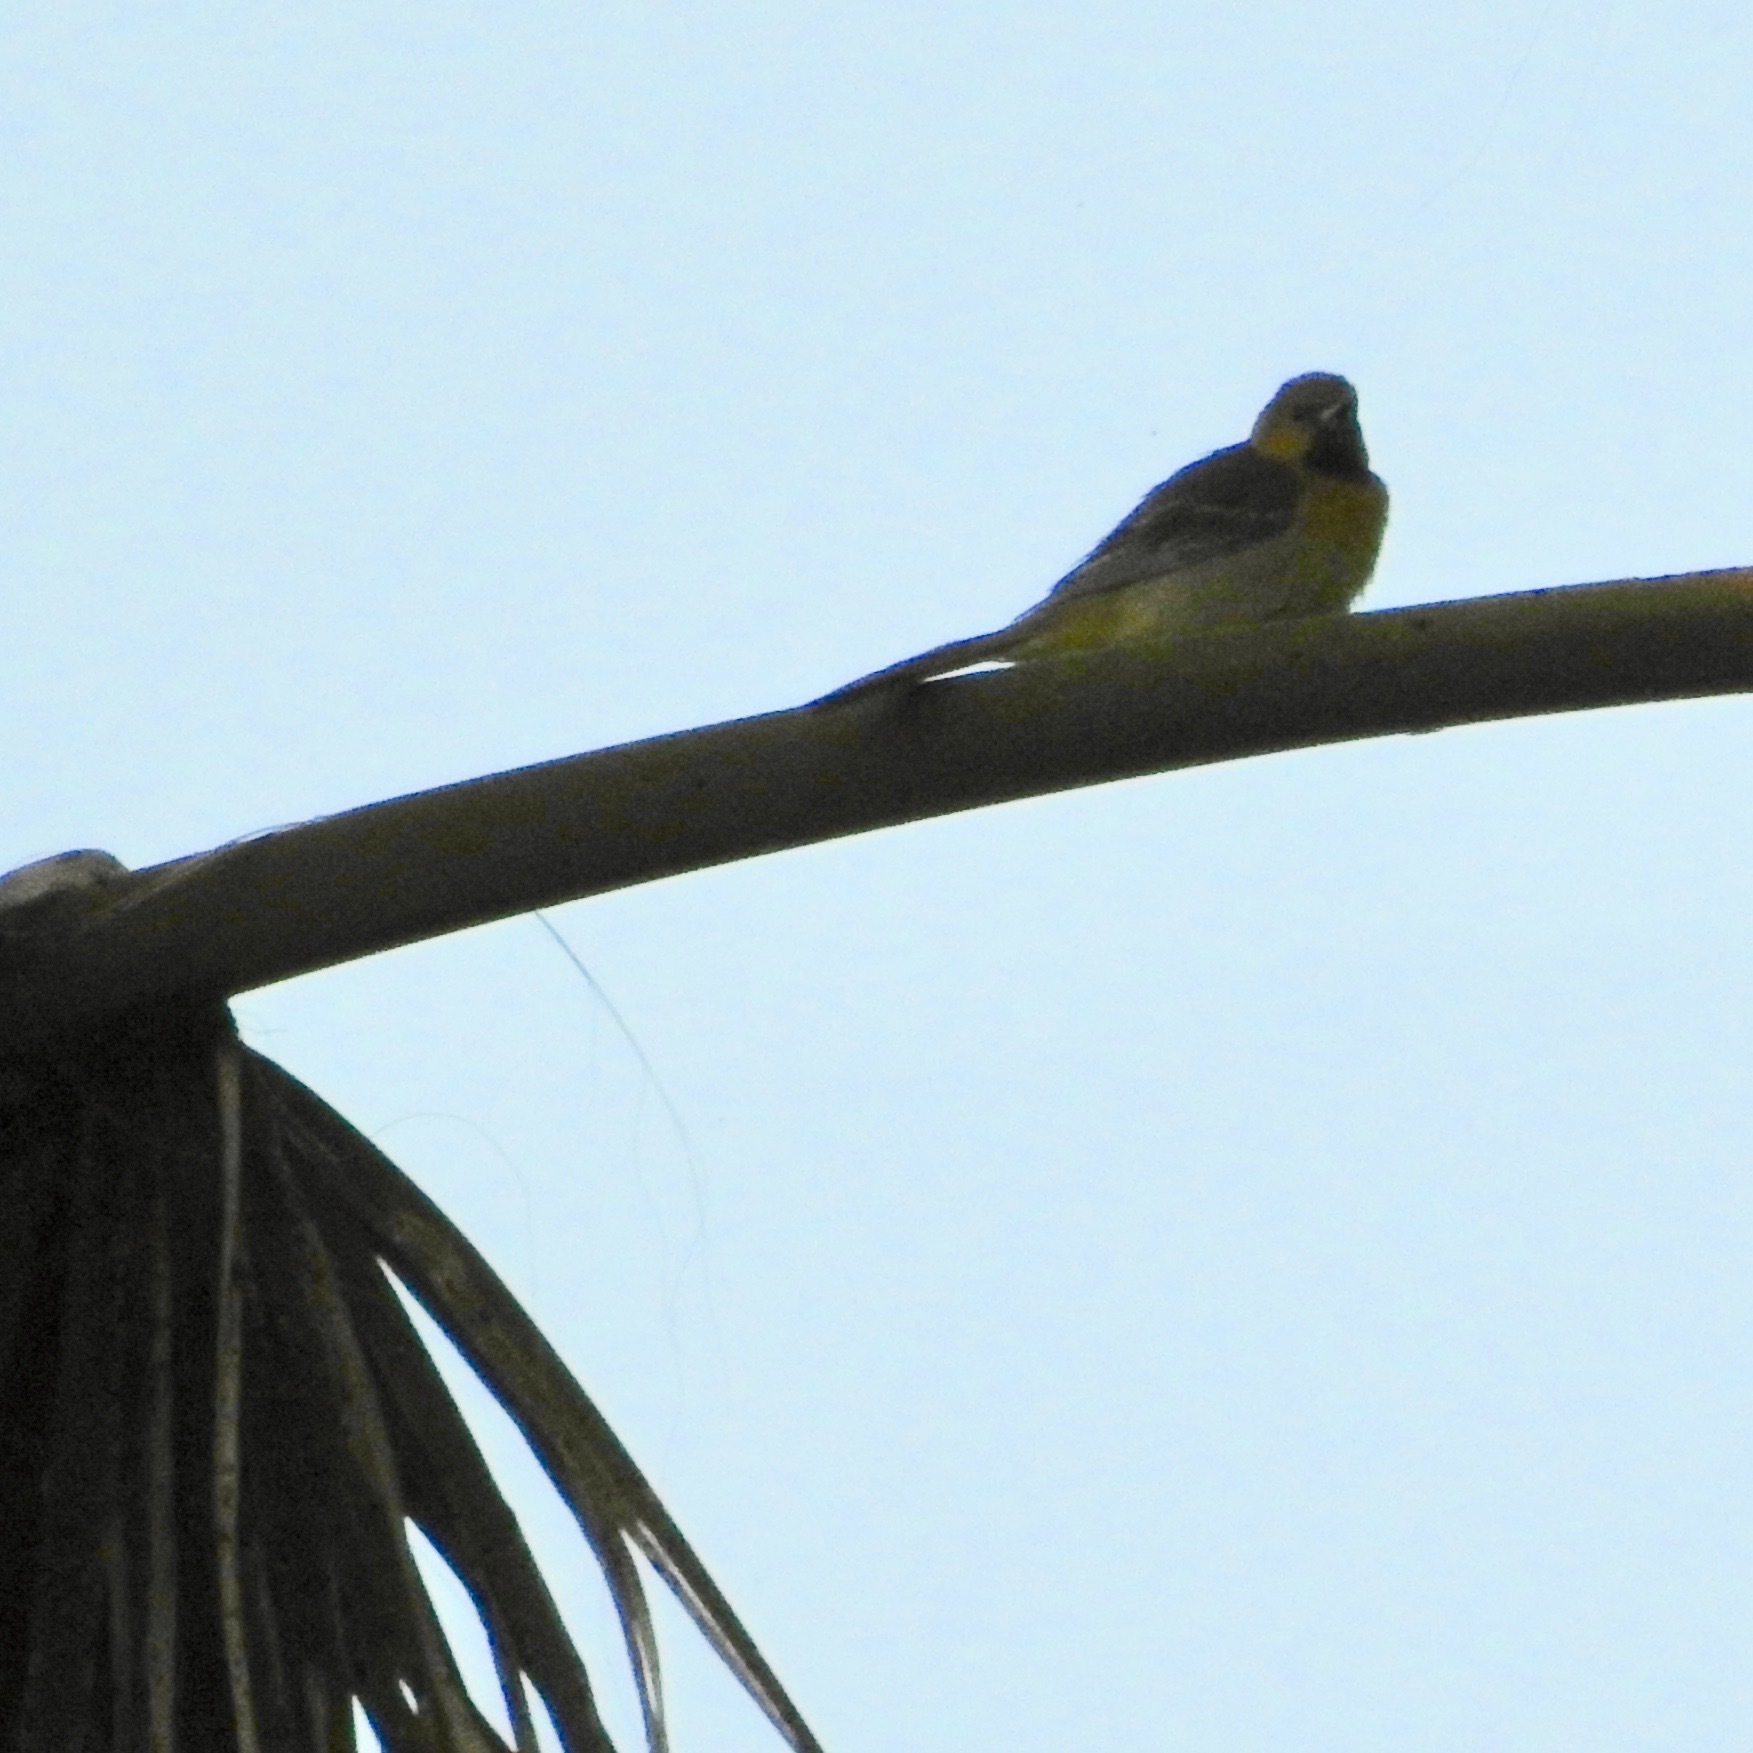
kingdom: Animalia
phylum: Chordata
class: Aves
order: Passeriformes
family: Icteridae
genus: Icterus
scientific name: Icterus cucullatus
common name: Hooded oriole
